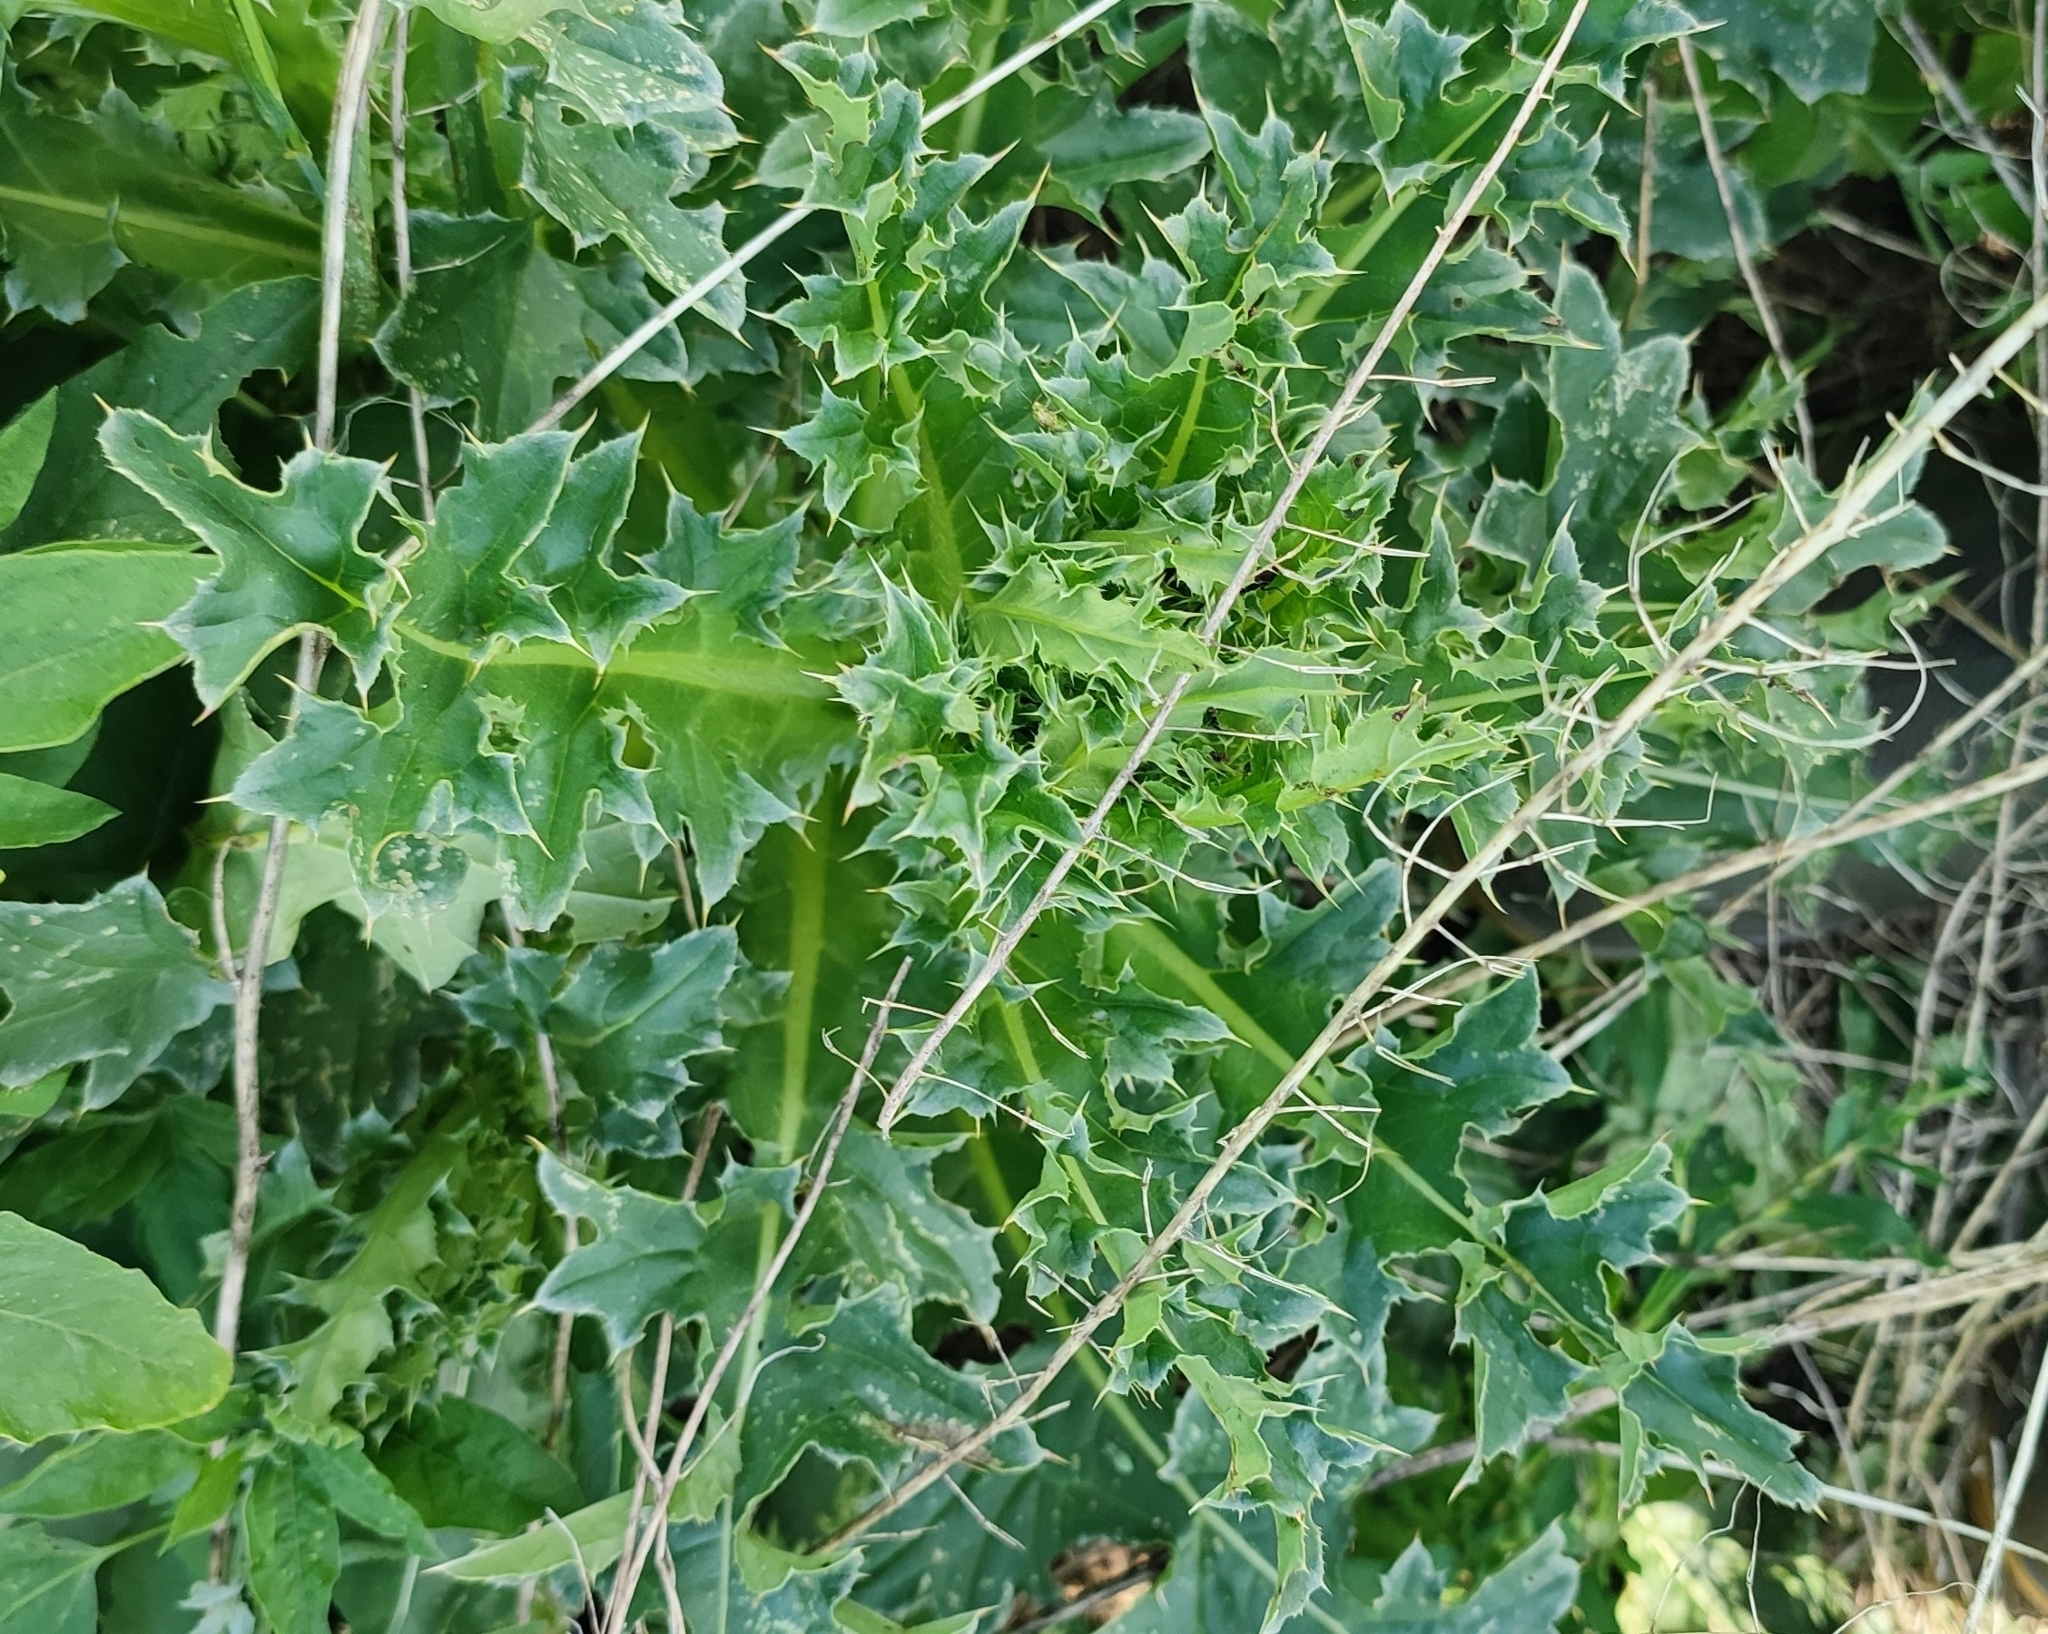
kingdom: Plantae
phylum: Tracheophyta
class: Magnoliopsida
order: Asterales
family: Asteraceae
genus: Carduus
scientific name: Carduus nutans
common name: Musk thistle
